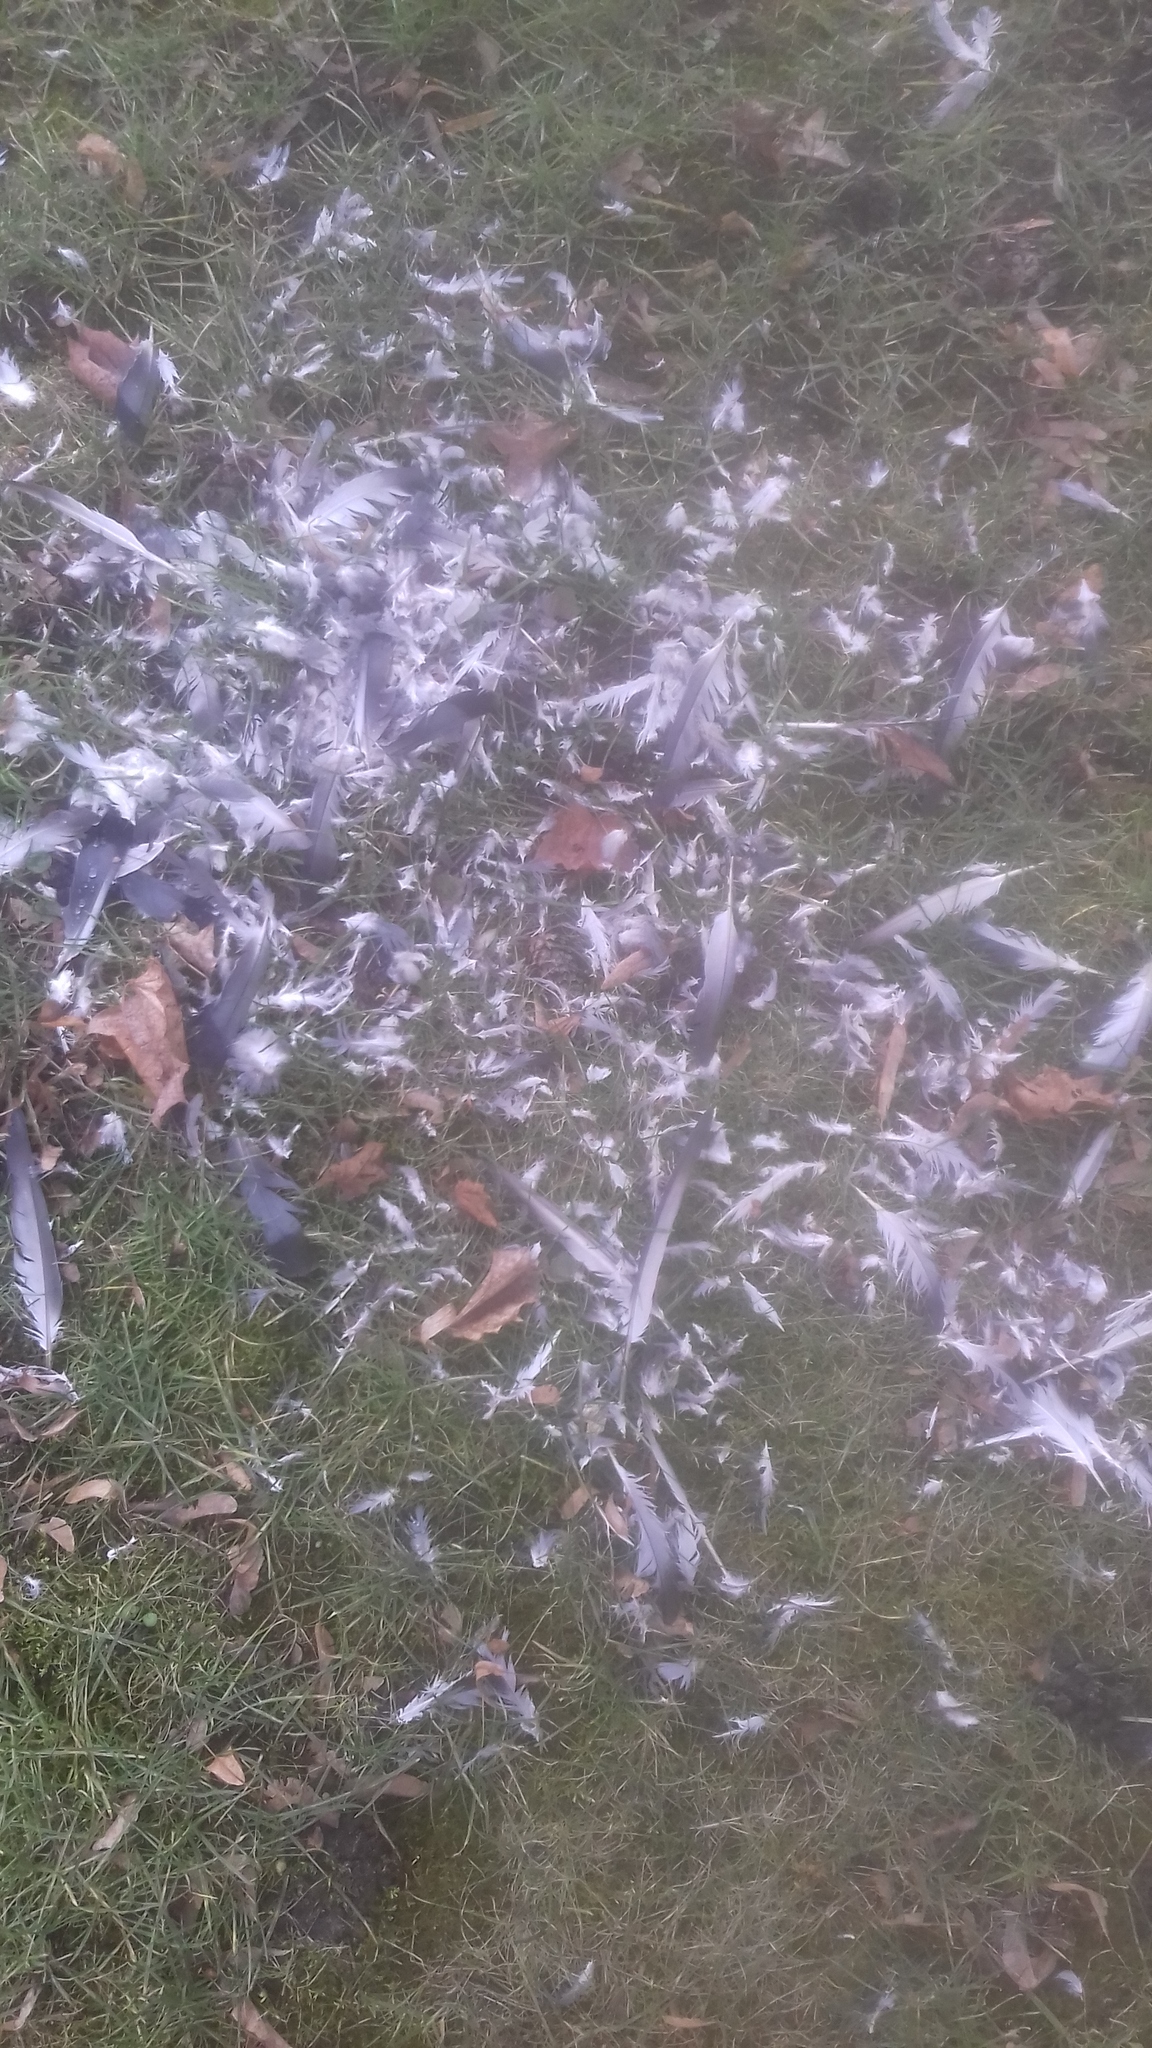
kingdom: Animalia
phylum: Chordata
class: Aves
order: Columbiformes
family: Columbidae
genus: Columba
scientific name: Columba livia
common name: Rock pigeon
